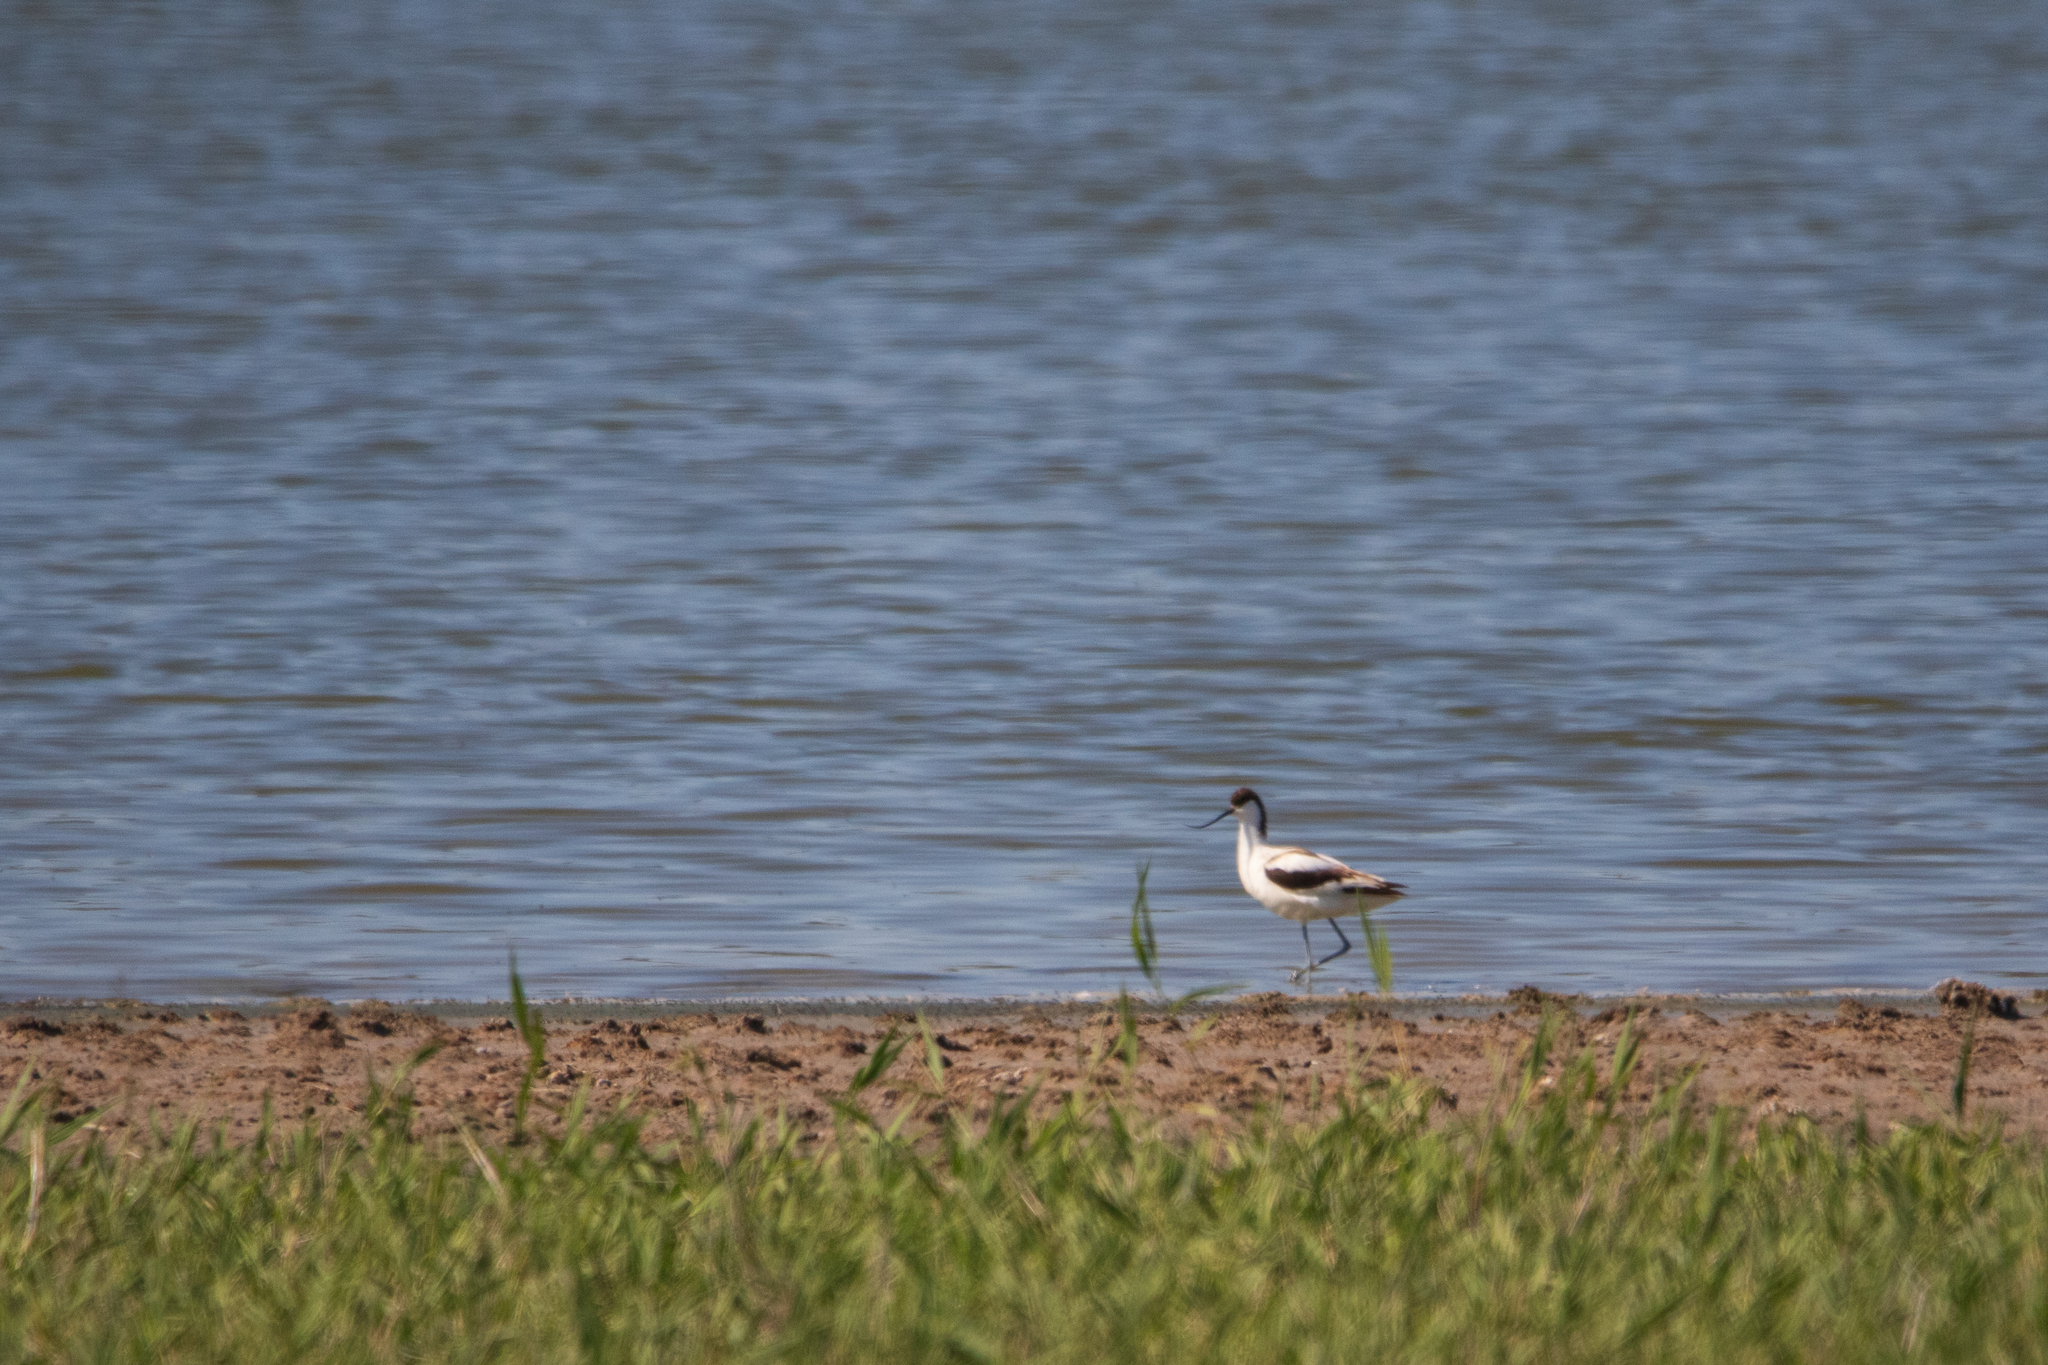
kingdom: Animalia
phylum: Chordata
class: Aves
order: Charadriiformes
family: Recurvirostridae
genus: Recurvirostra
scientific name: Recurvirostra avosetta
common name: Pied avocet
